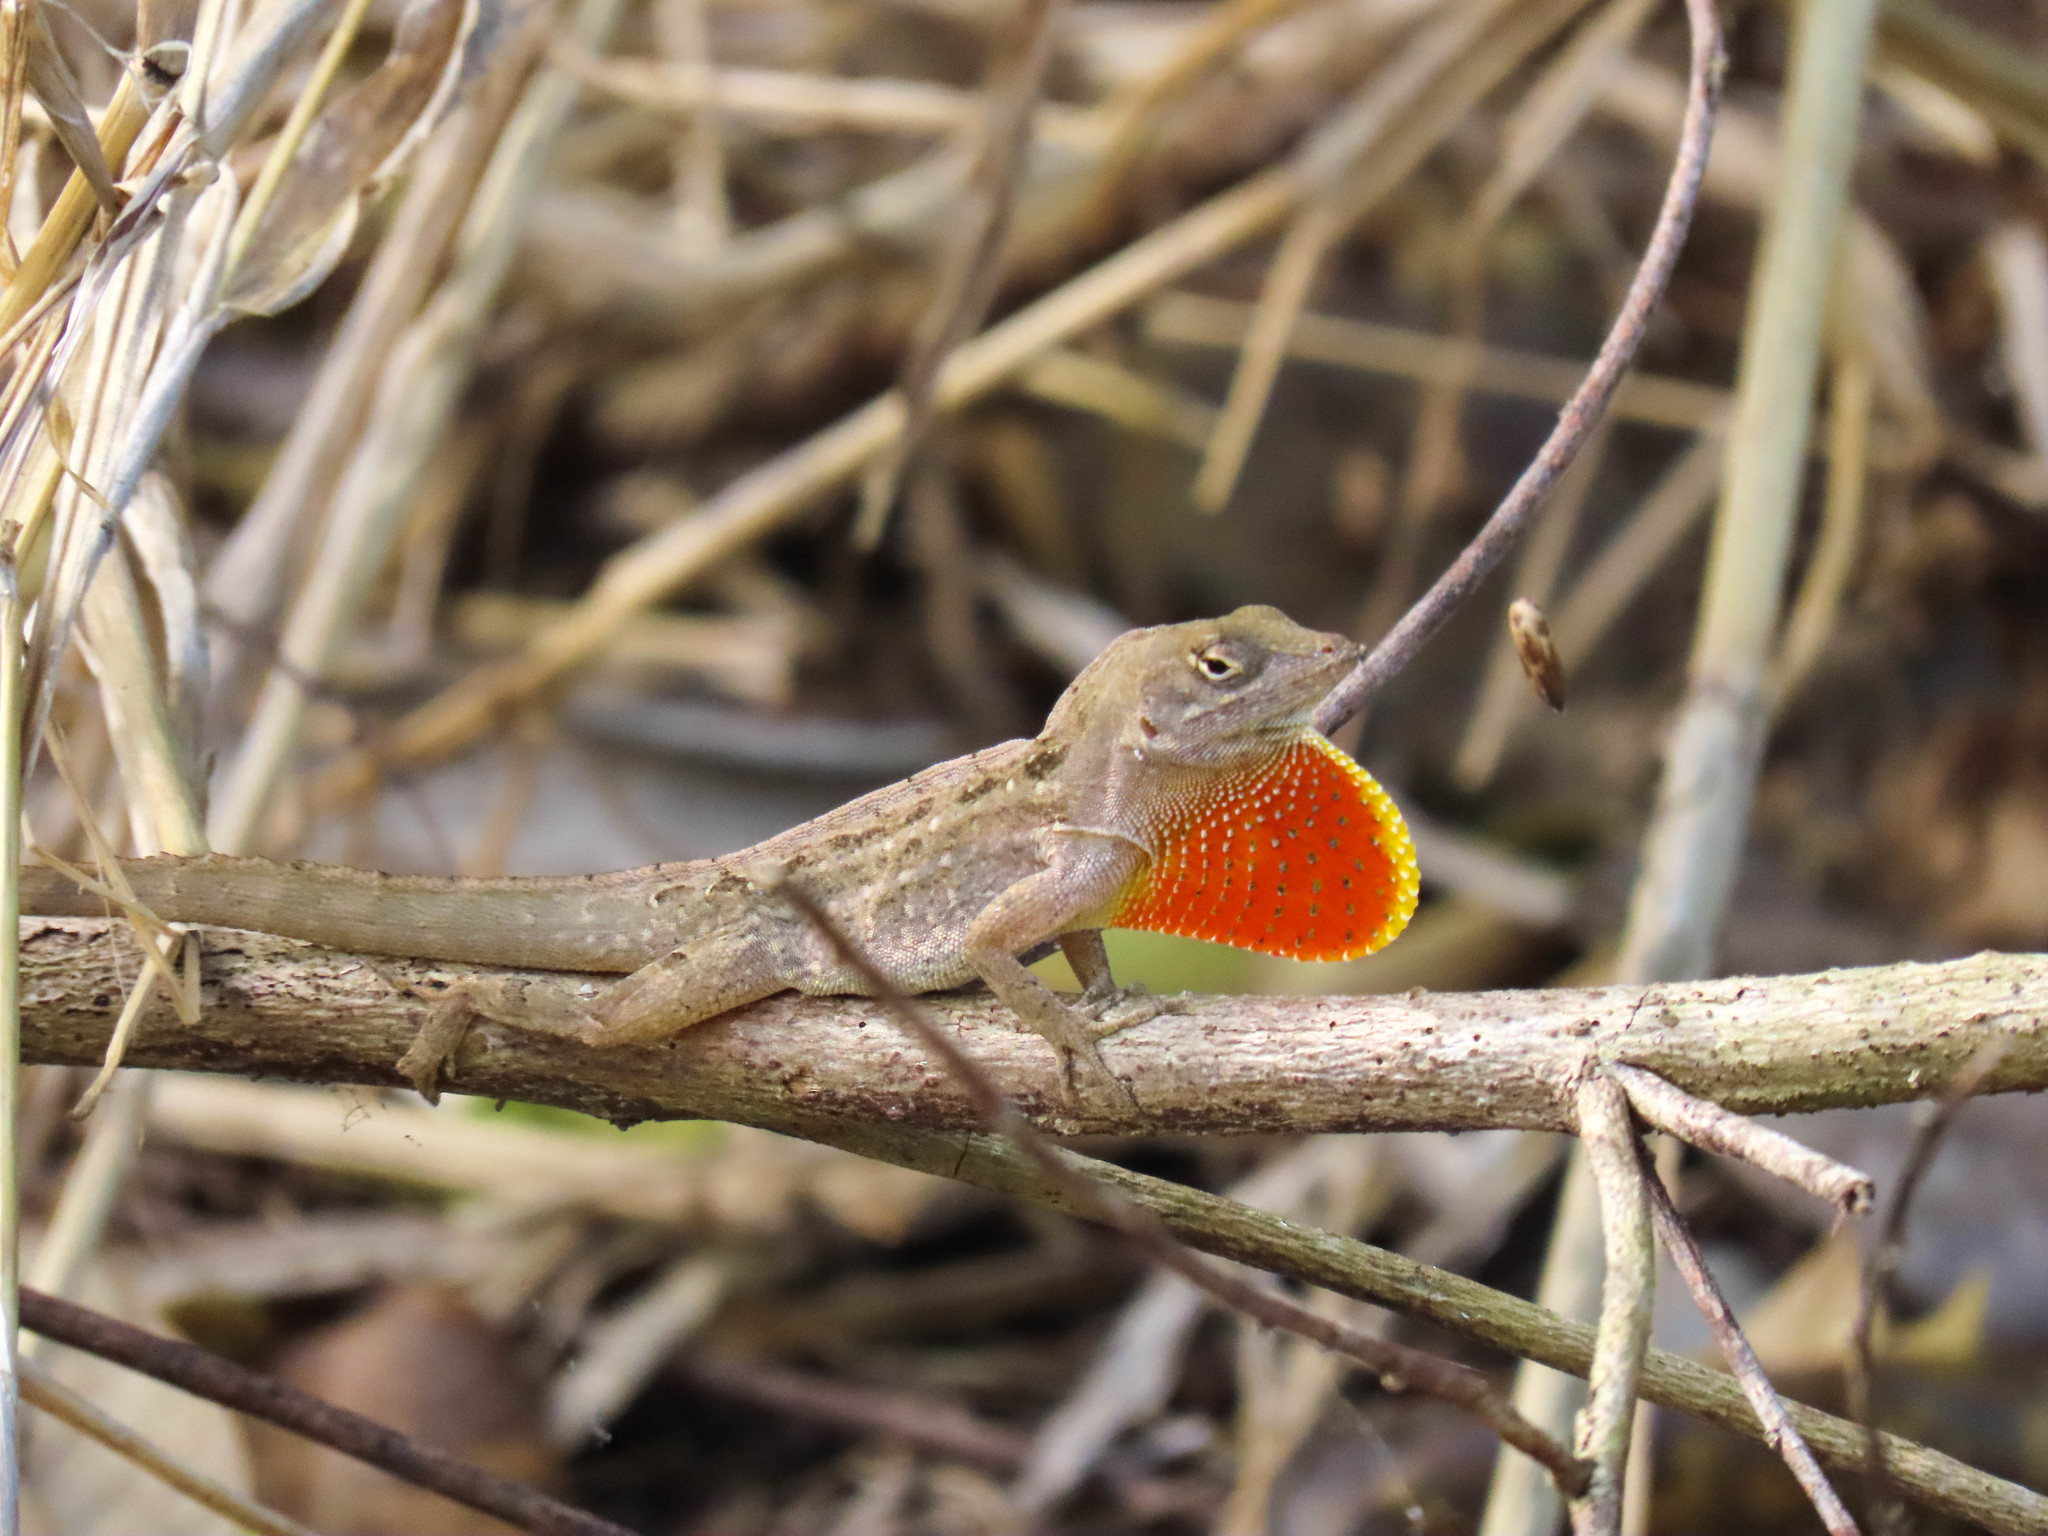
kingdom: Animalia
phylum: Chordata
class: Squamata
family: Dactyloidae
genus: Anolis
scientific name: Anolis sagrei
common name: Brown anole
